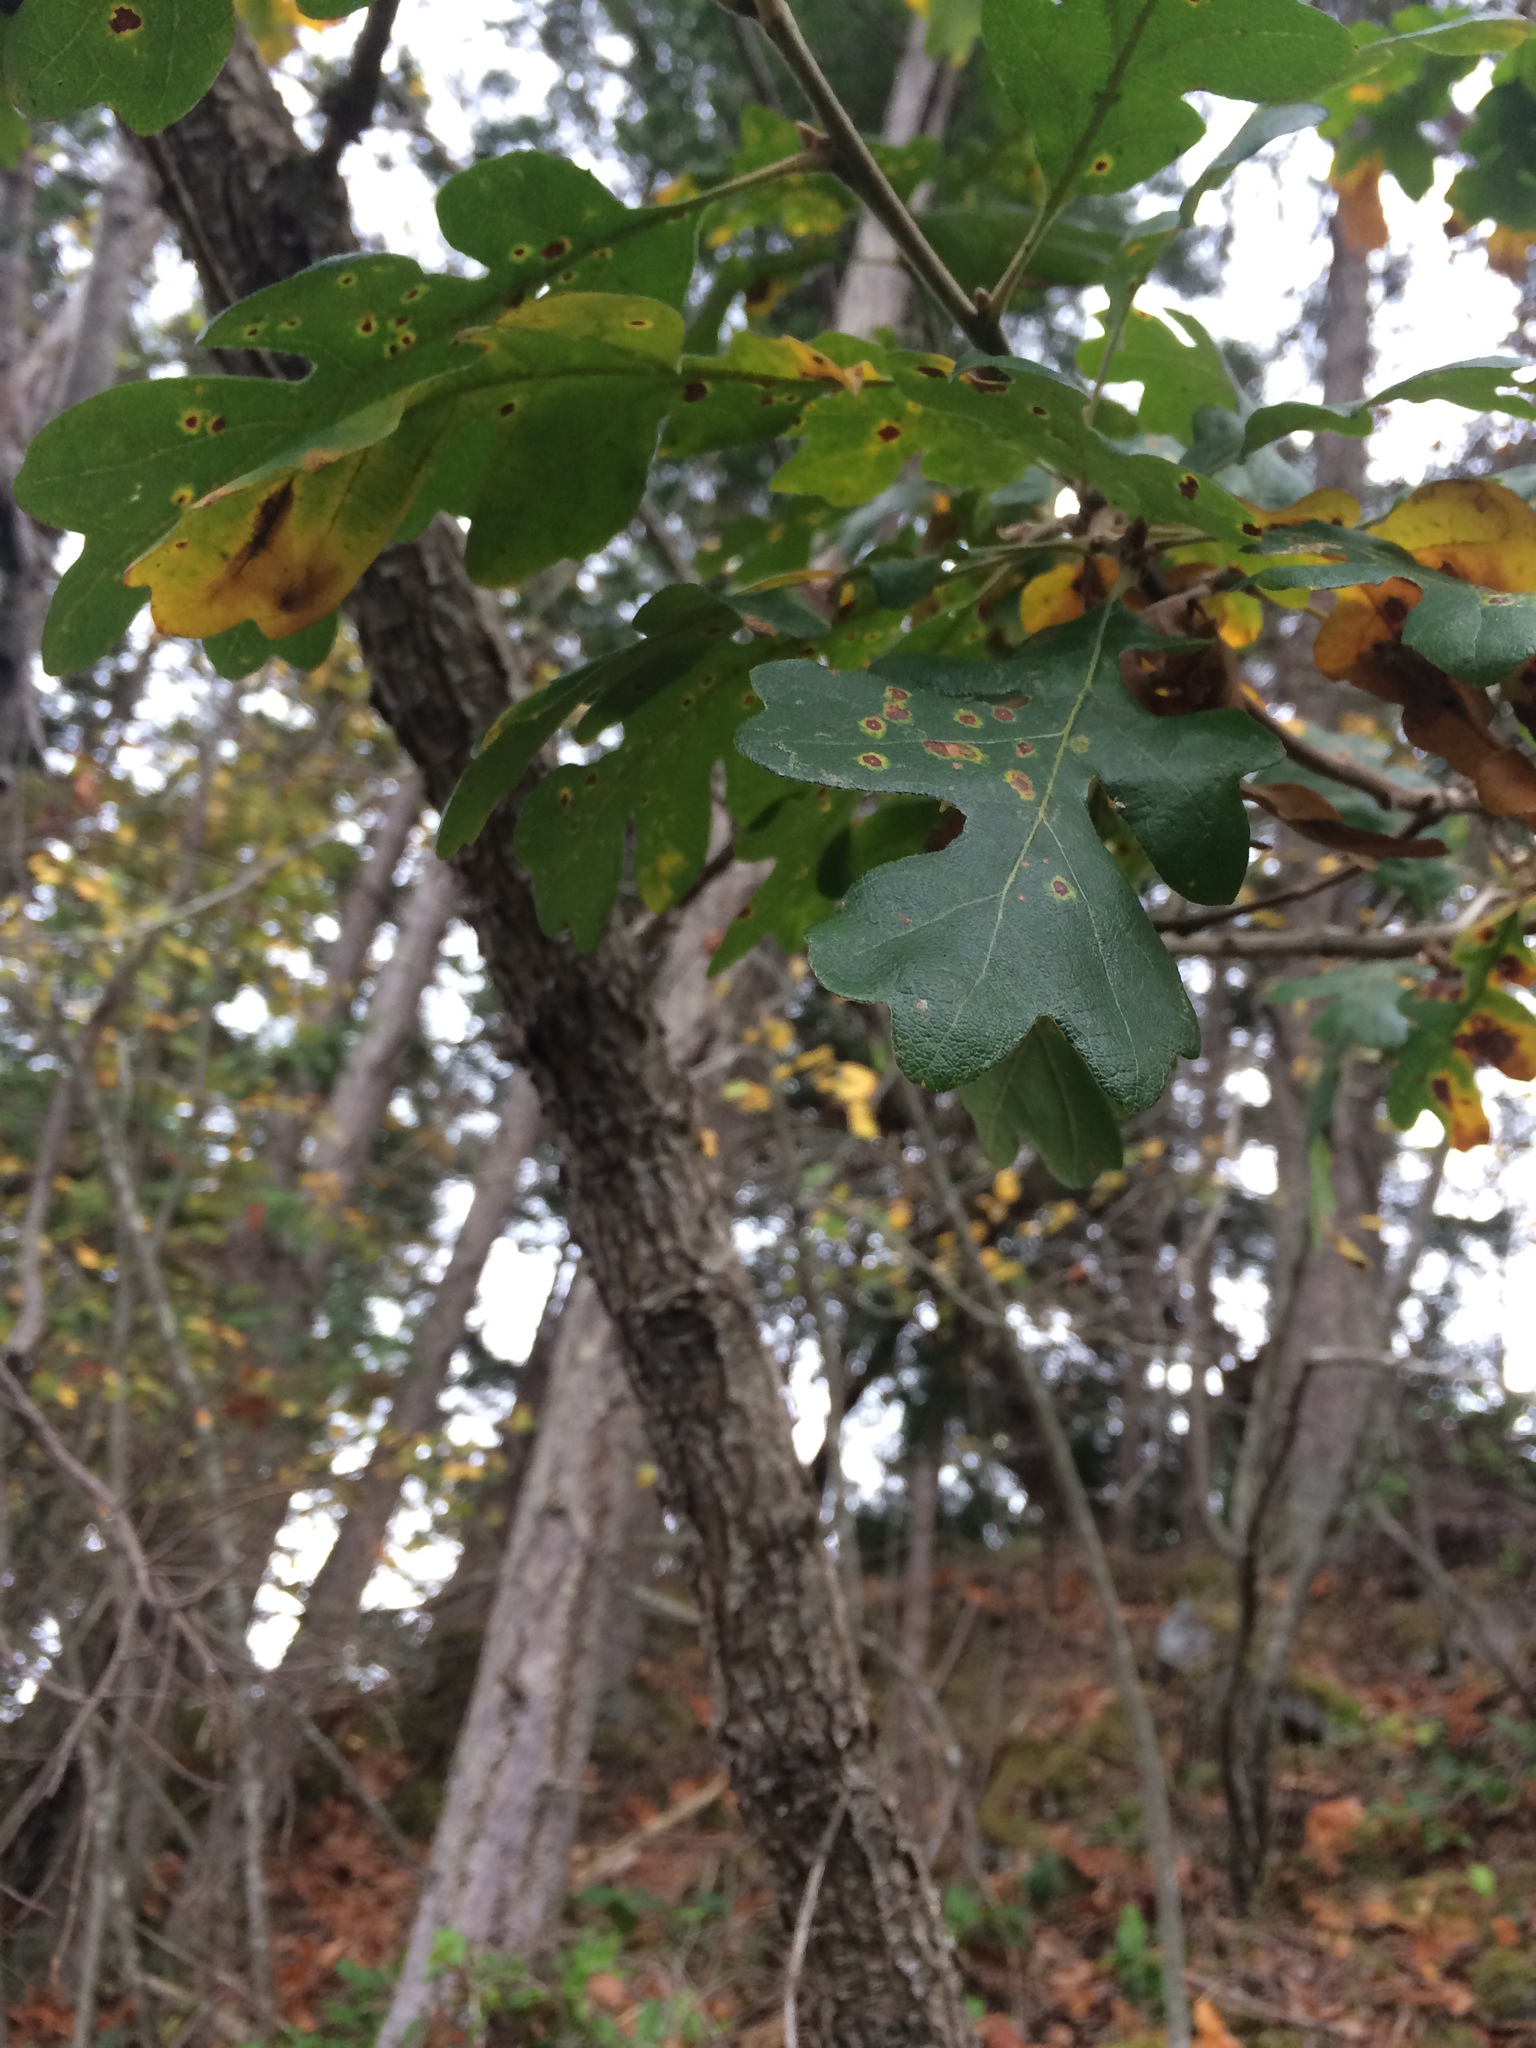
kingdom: Plantae
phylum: Tracheophyta
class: Magnoliopsida
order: Fagales
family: Fagaceae
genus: Quercus
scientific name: Quercus garryana
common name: Garry oak
